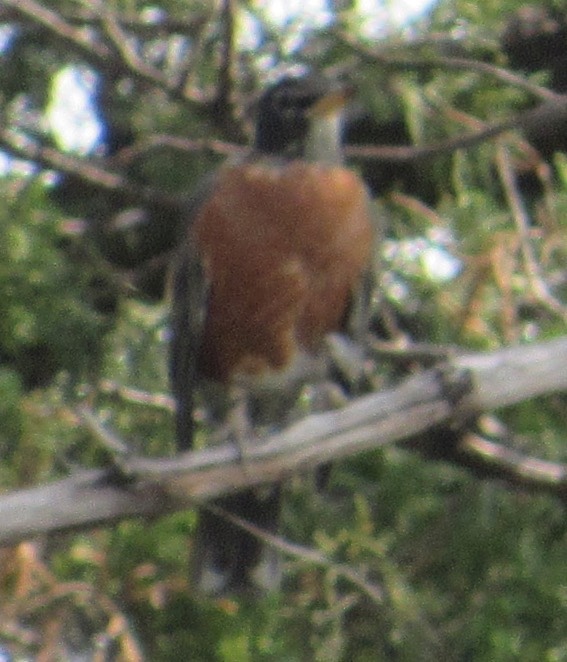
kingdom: Animalia
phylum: Chordata
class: Aves
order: Passeriformes
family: Turdidae
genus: Turdus
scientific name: Turdus migratorius
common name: American robin
